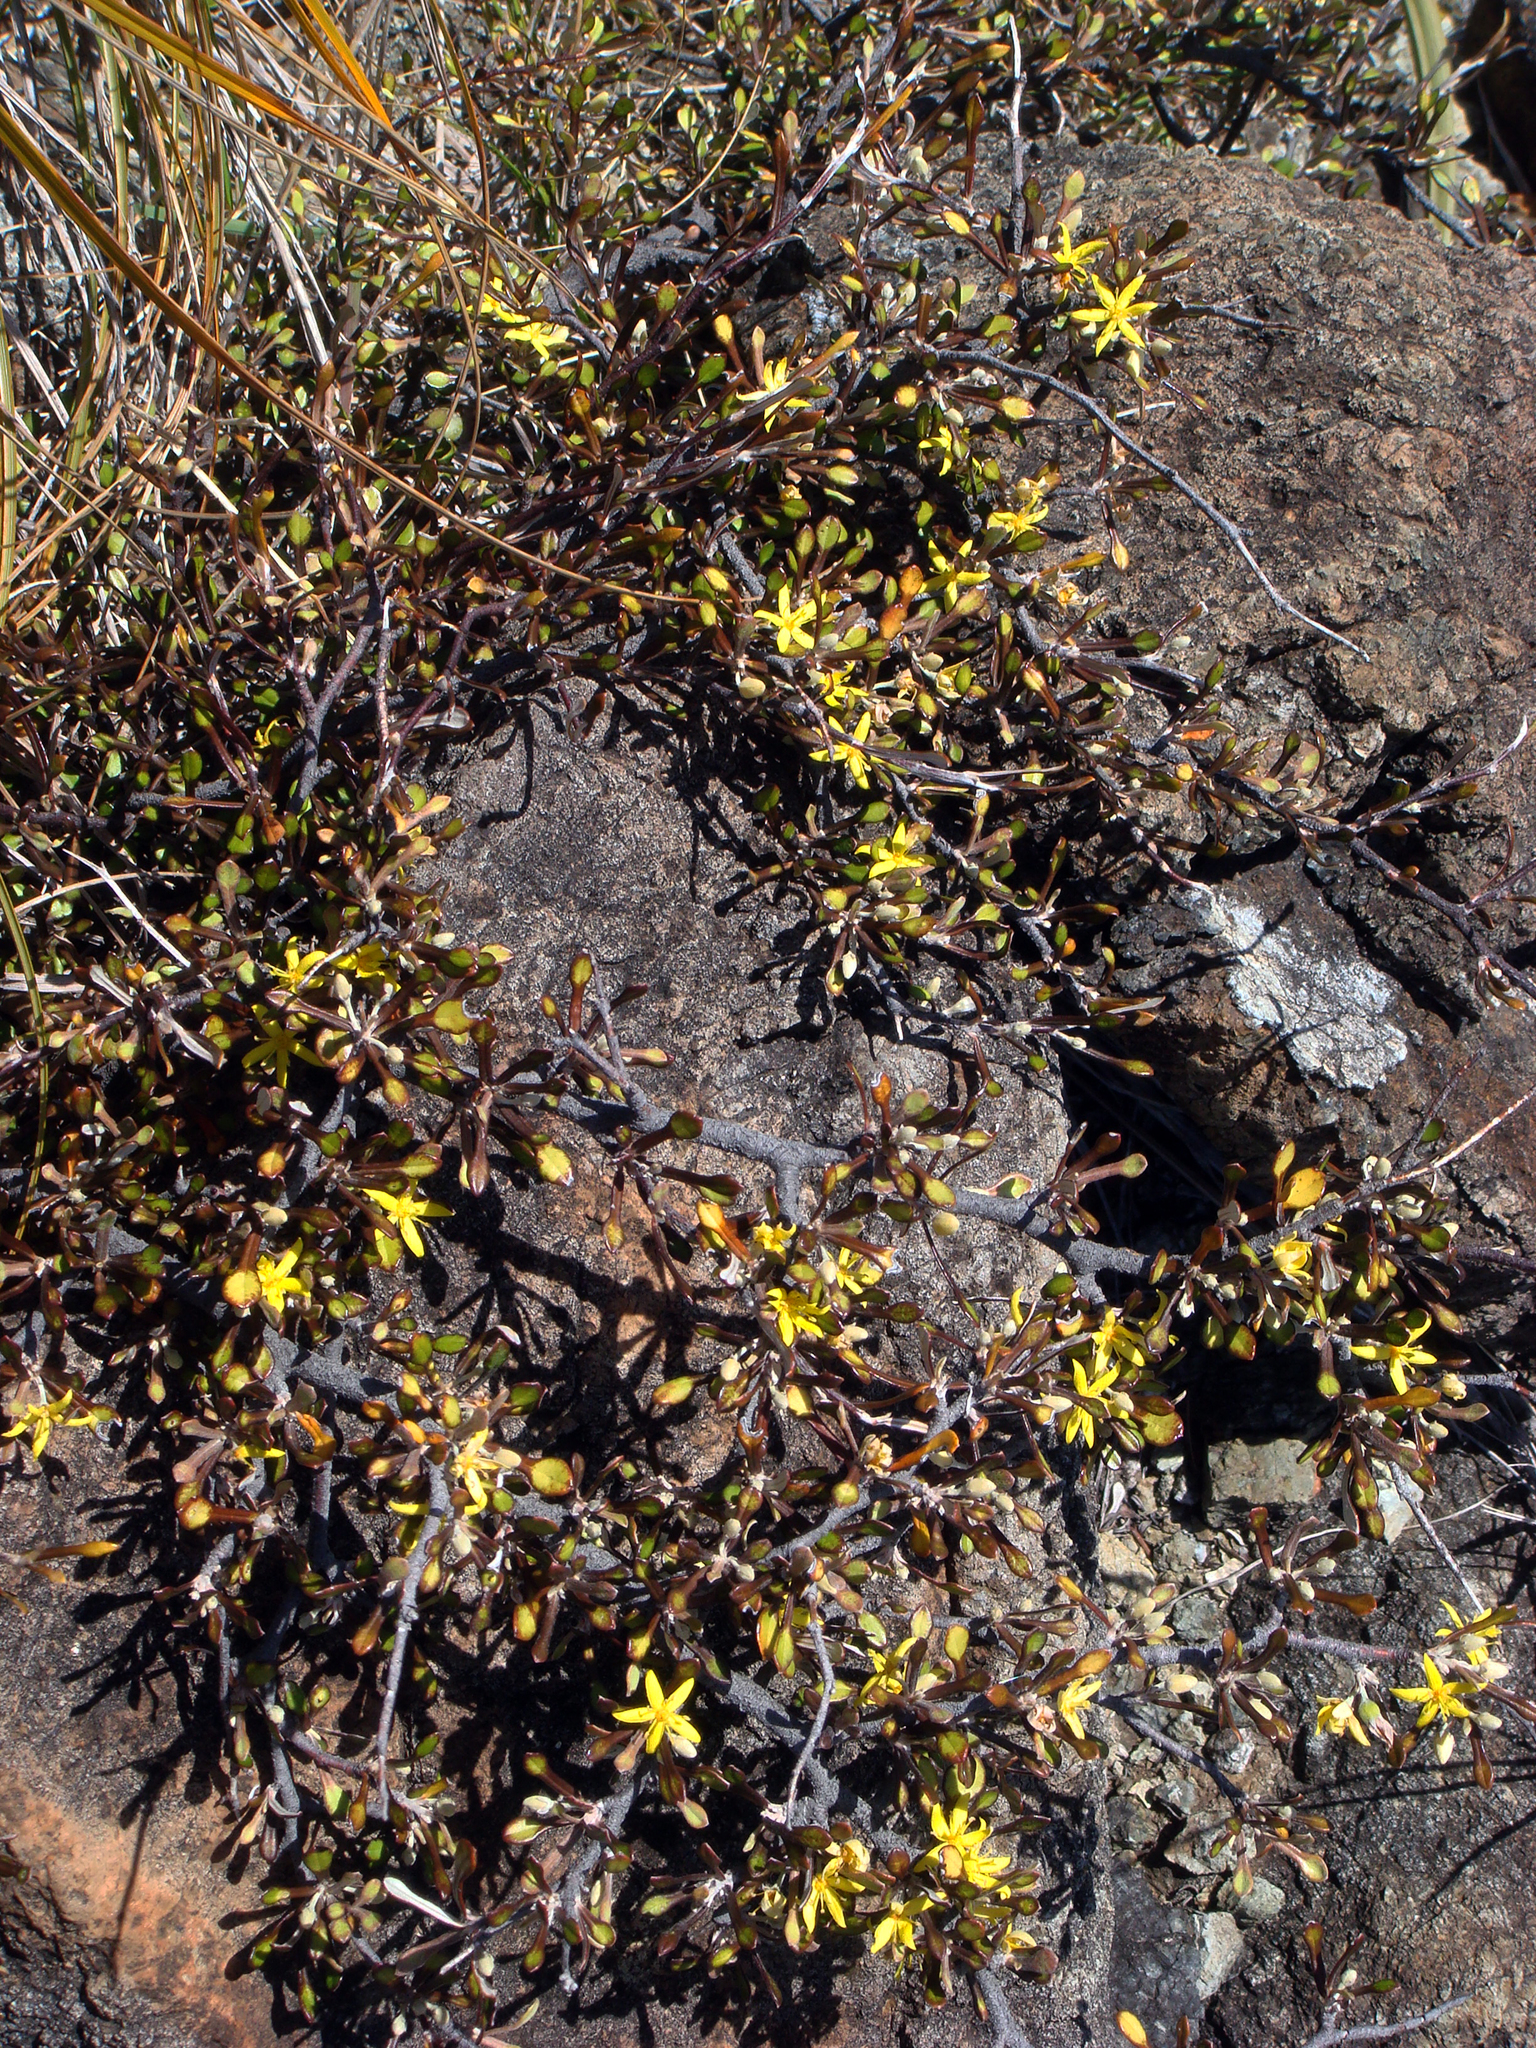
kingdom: Plantae
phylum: Tracheophyta
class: Magnoliopsida
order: Asterales
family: Argophyllaceae
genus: Corokia
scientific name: Corokia cotoneaster
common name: Wire nettingbush
